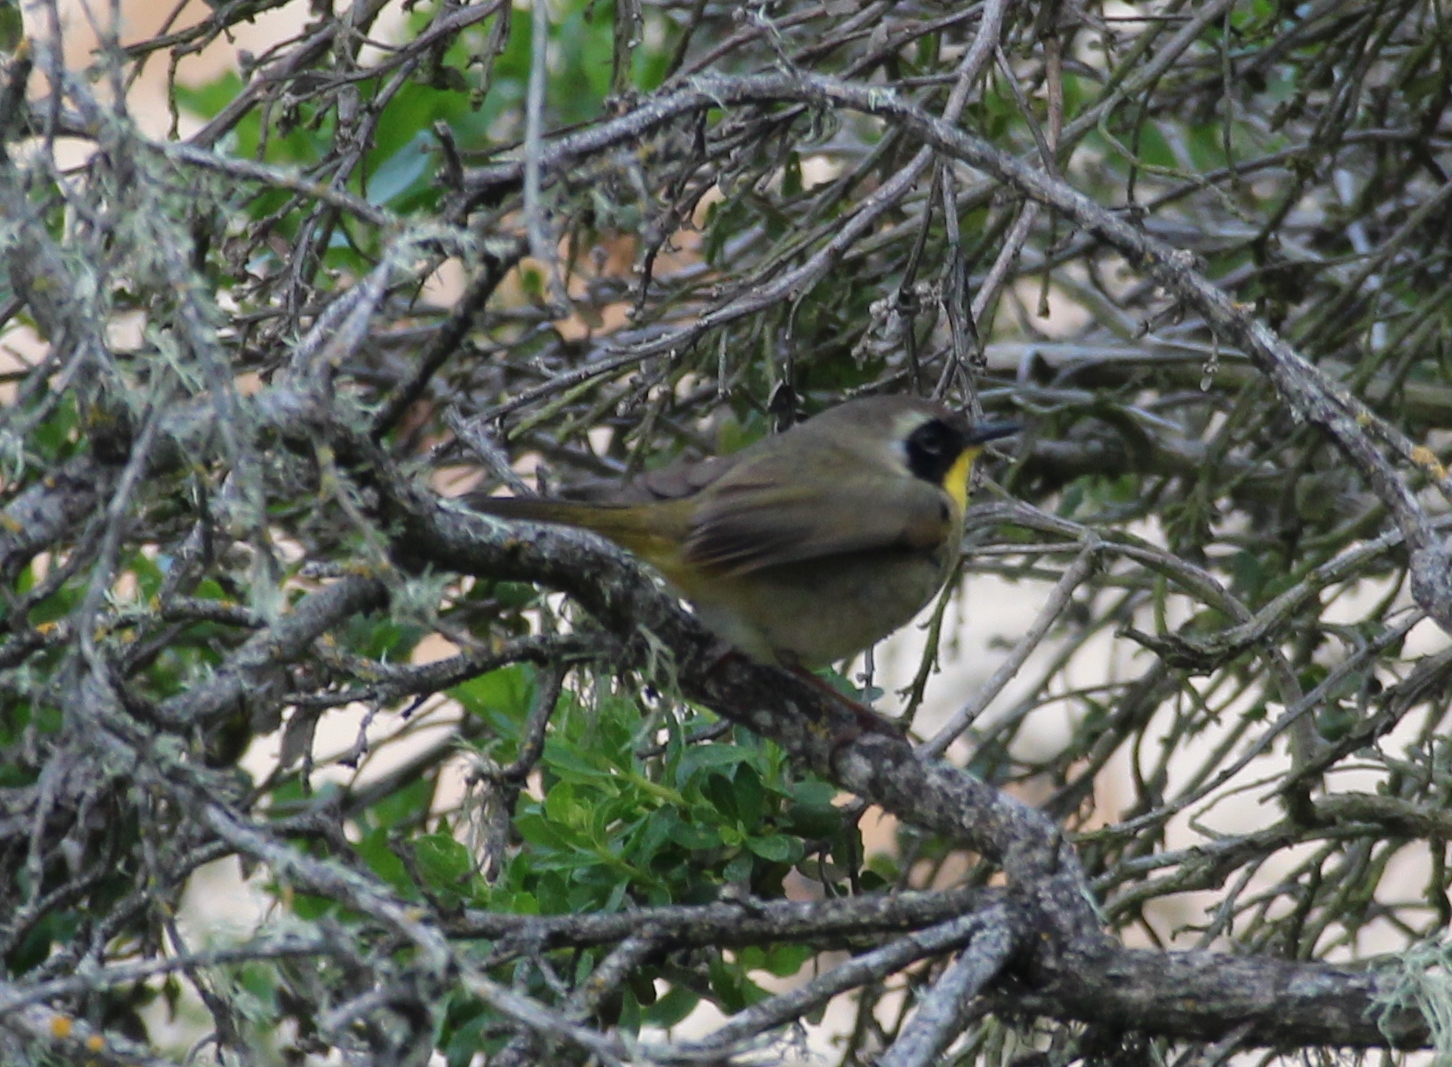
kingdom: Animalia
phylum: Chordata
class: Aves
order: Passeriformes
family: Parulidae
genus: Geothlypis
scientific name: Geothlypis trichas
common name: Common yellowthroat
